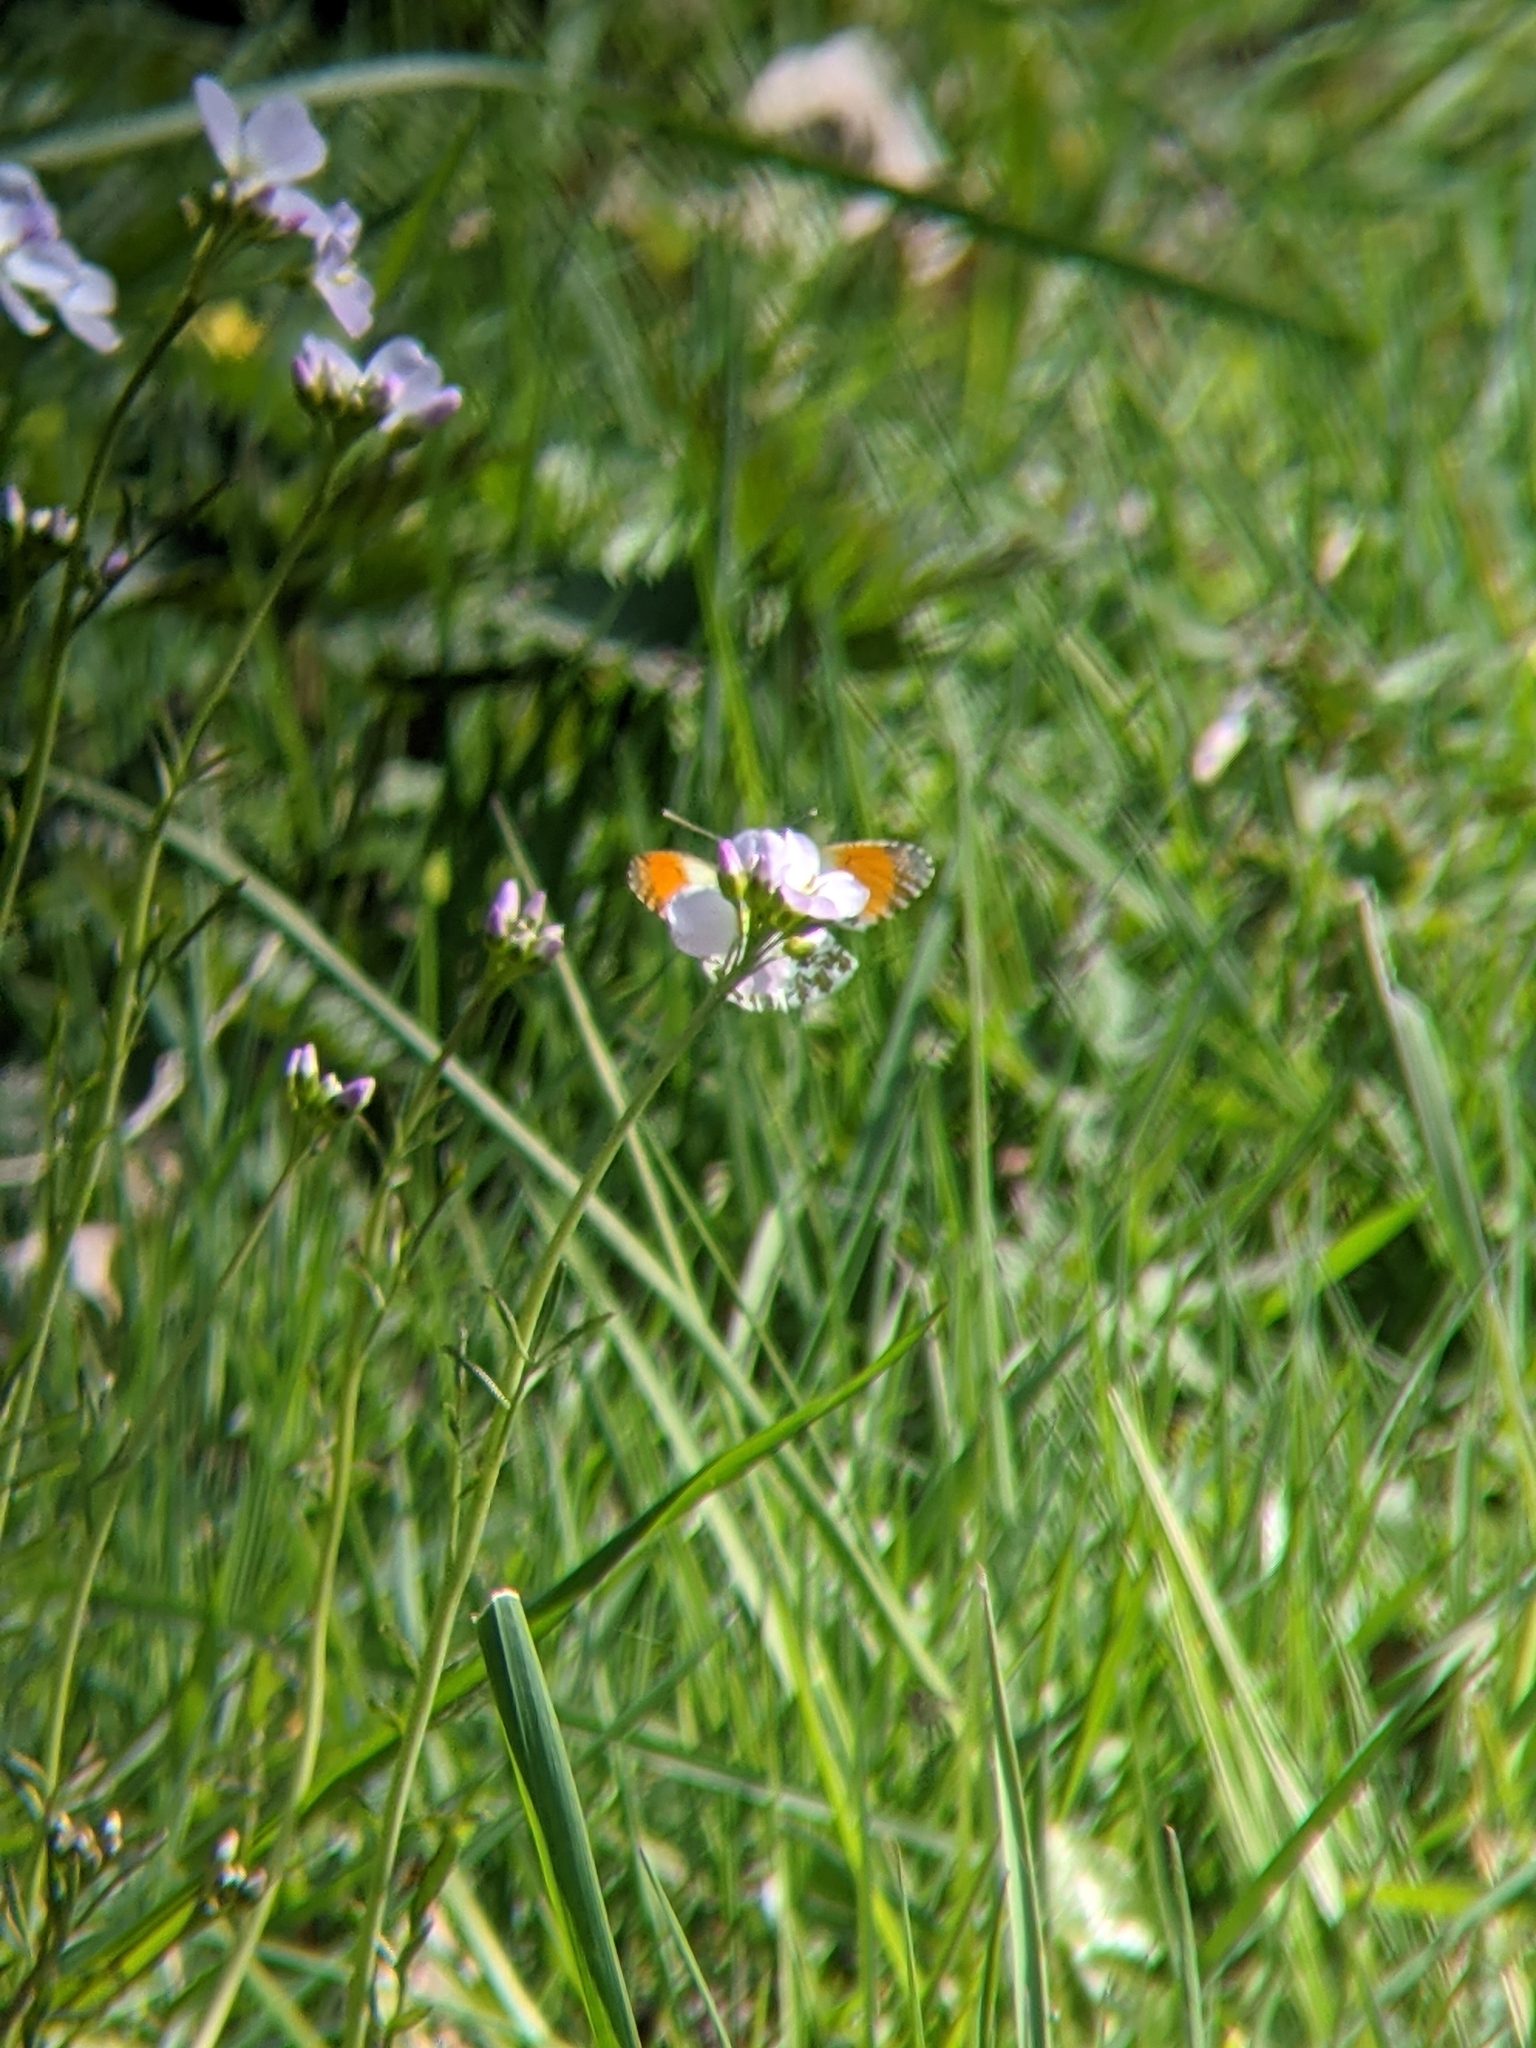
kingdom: Animalia
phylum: Arthropoda
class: Insecta
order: Lepidoptera
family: Pieridae
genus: Anthocharis
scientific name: Anthocharis cardamines
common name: Orange-tip
